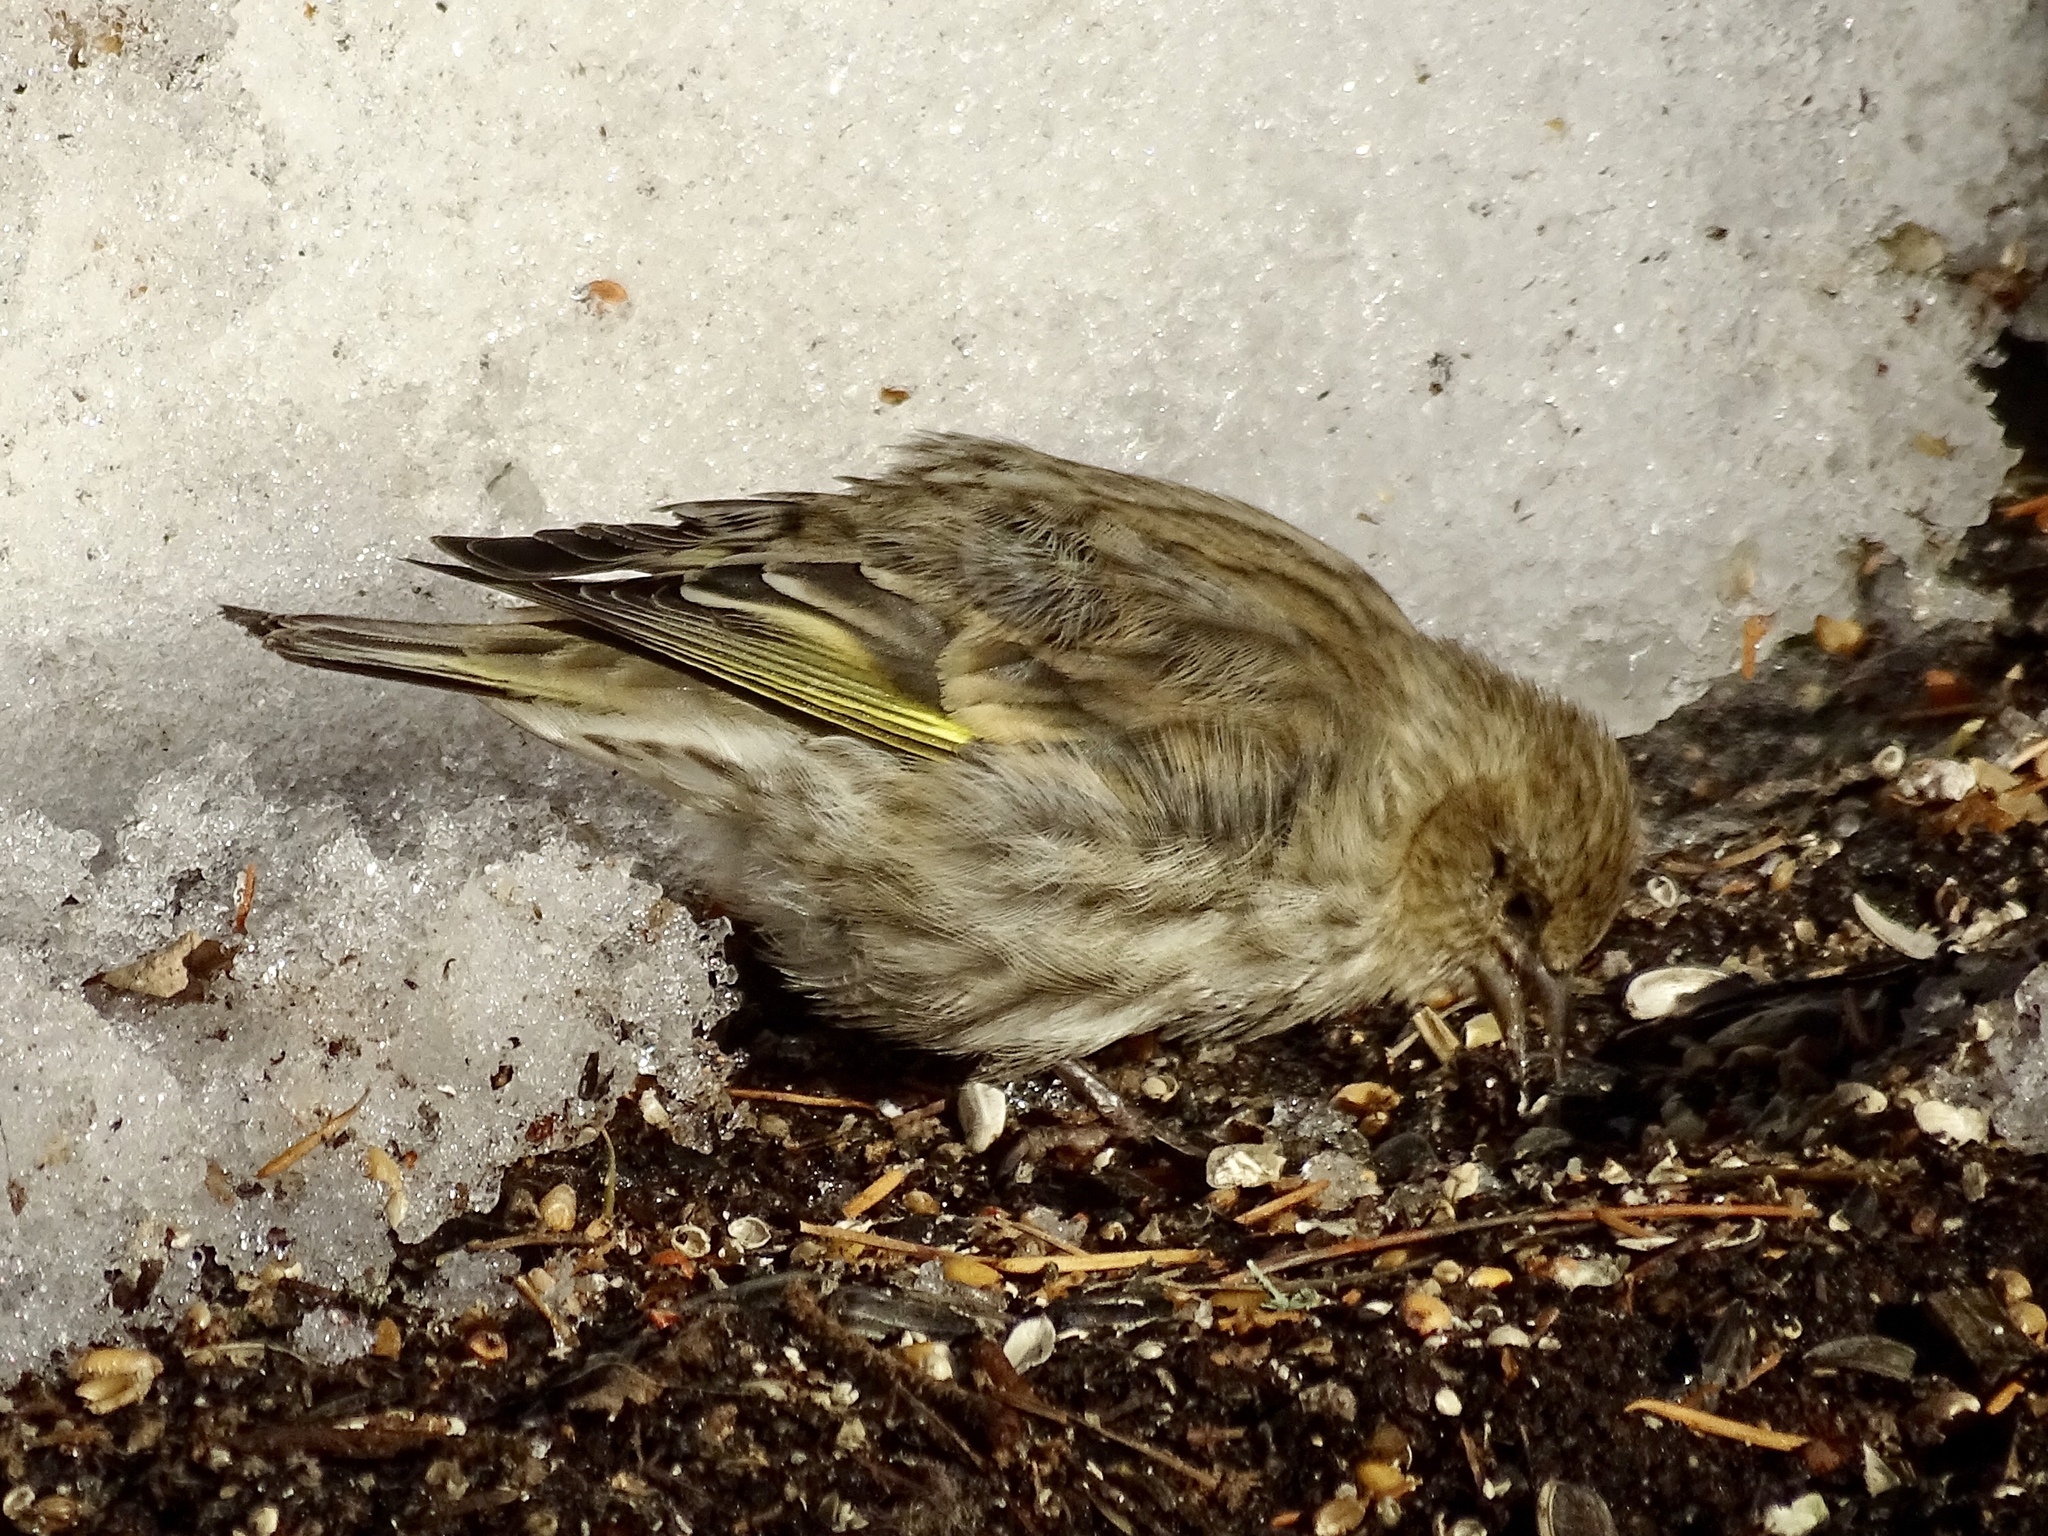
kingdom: Animalia
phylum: Chordata
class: Aves
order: Passeriformes
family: Fringillidae
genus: Spinus
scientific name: Spinus pinus
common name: Pine siskin
